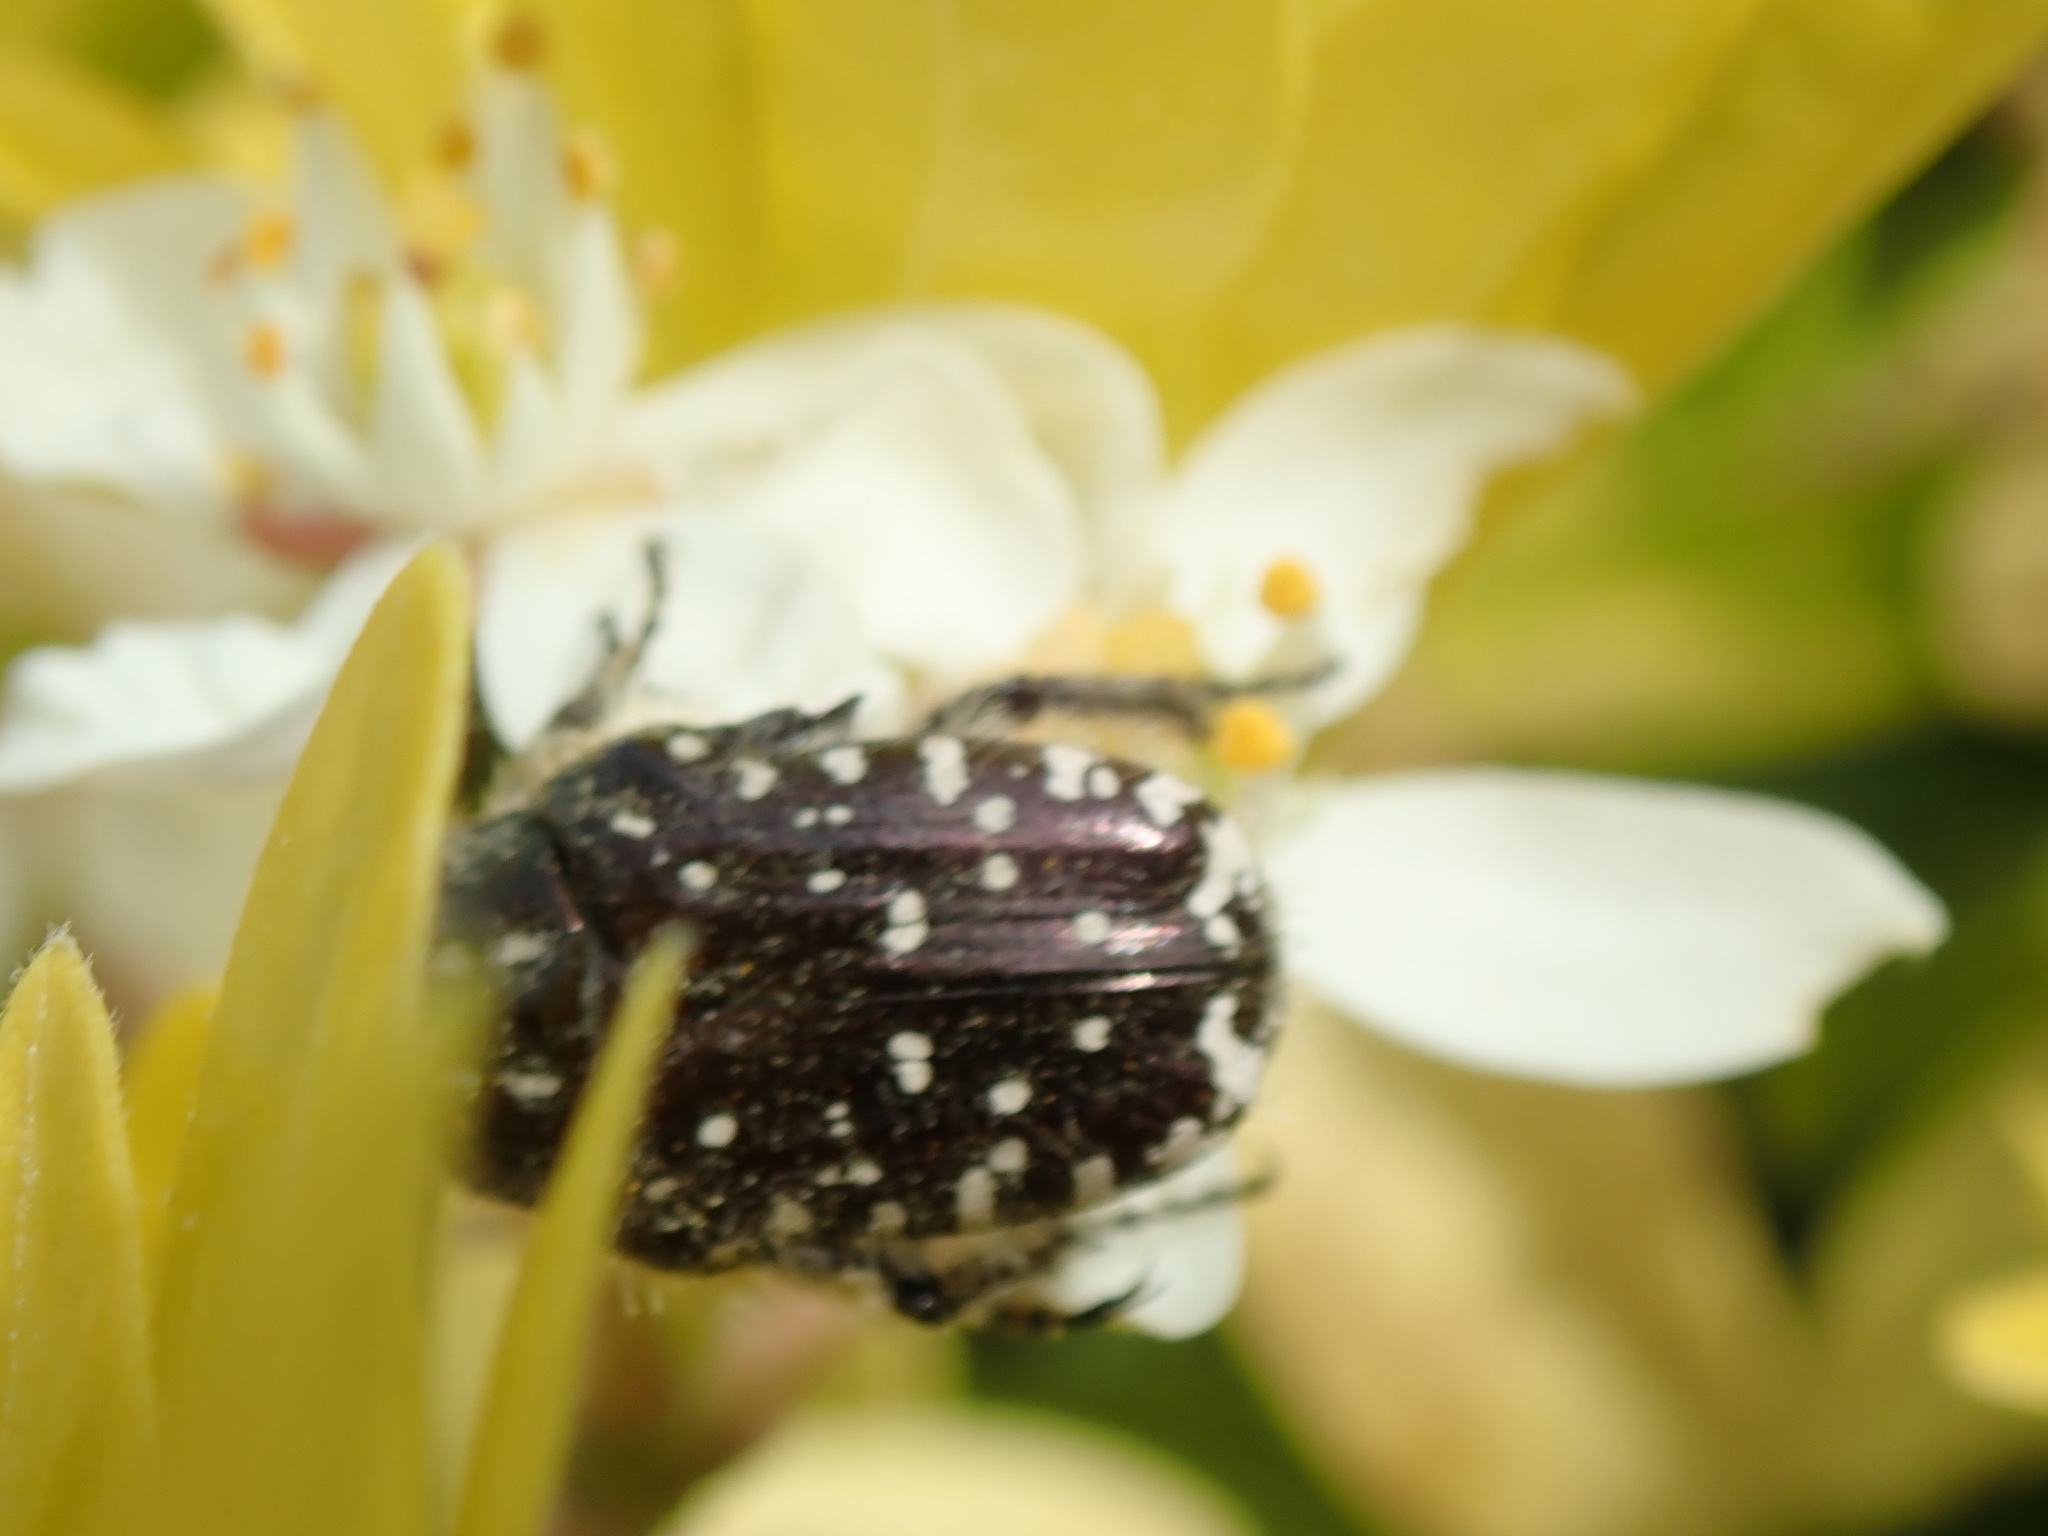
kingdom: Animalia
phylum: Arthropoda
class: Insecta
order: Coleoptera
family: Scarabaeidae
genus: Oxythyrea
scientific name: Oxythyrea funesta
